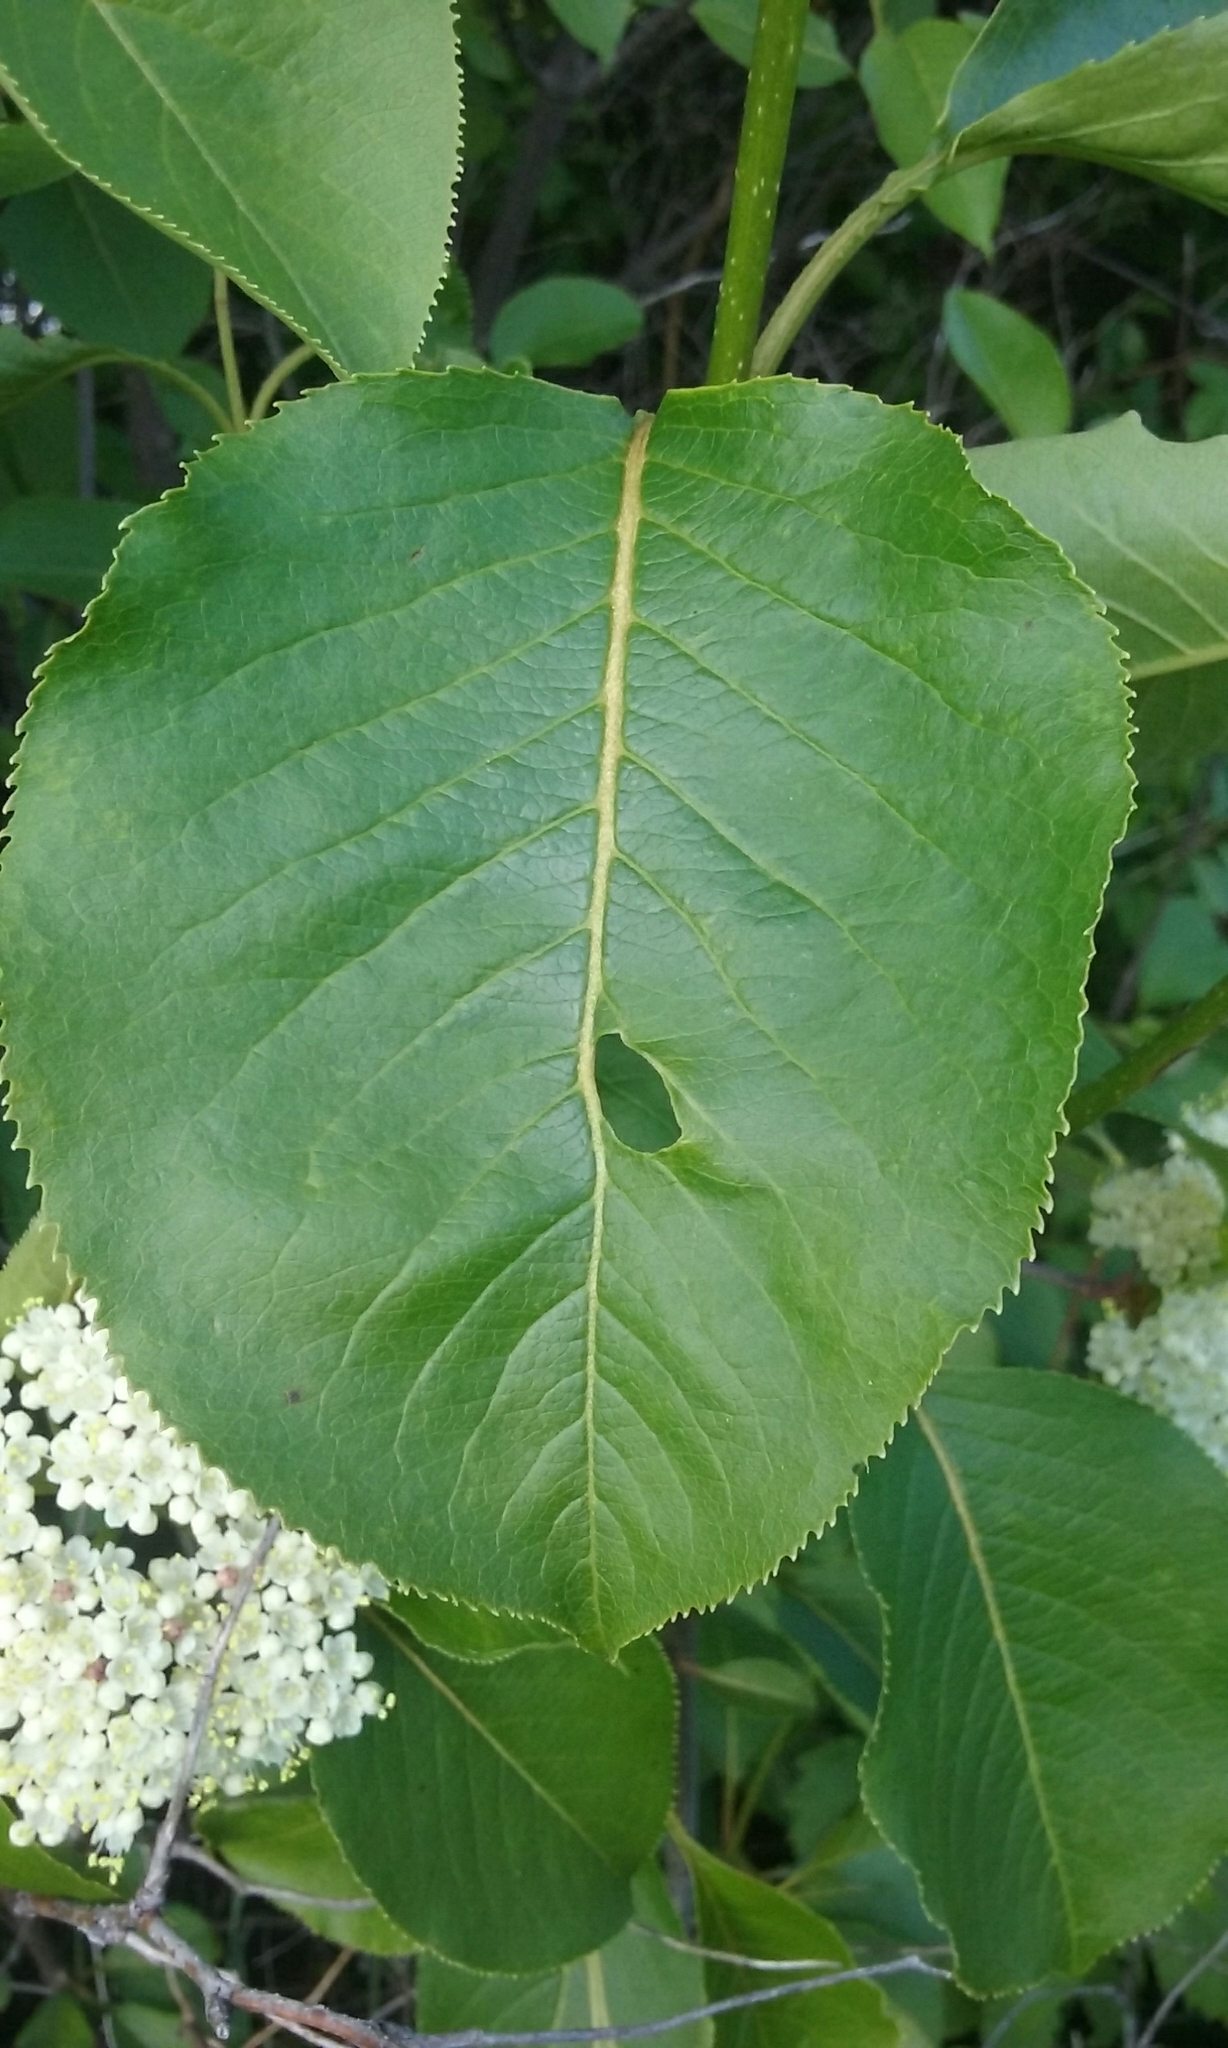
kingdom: Plantae
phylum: Tracheophyta
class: Magnoliopsida
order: Dipsacales
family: Viburnaceae
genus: Viburnum
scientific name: Viburnum lentago
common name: Black haw
